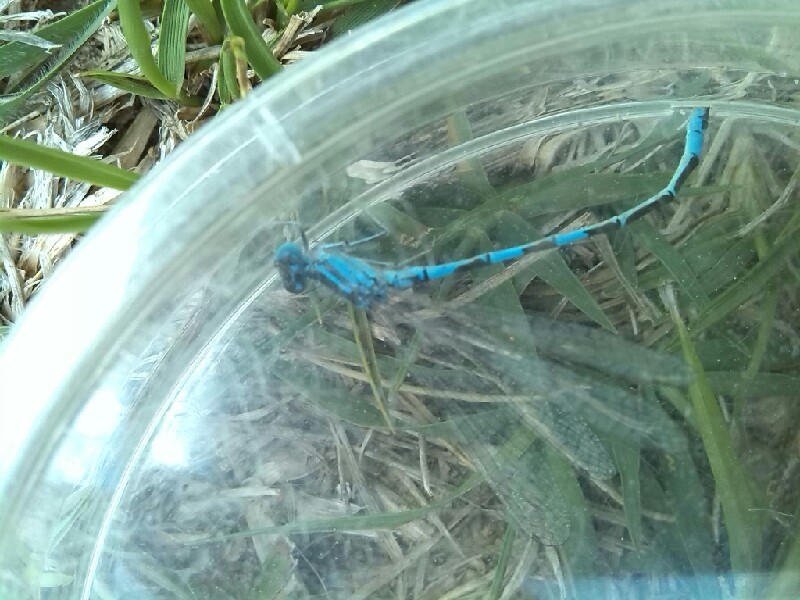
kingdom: Animalia
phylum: Arthropoda
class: Insecta
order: Odonata
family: Coenagrionidae
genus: Coenagrion
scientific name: Coenagrion scitulum
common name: Dainty bluet
